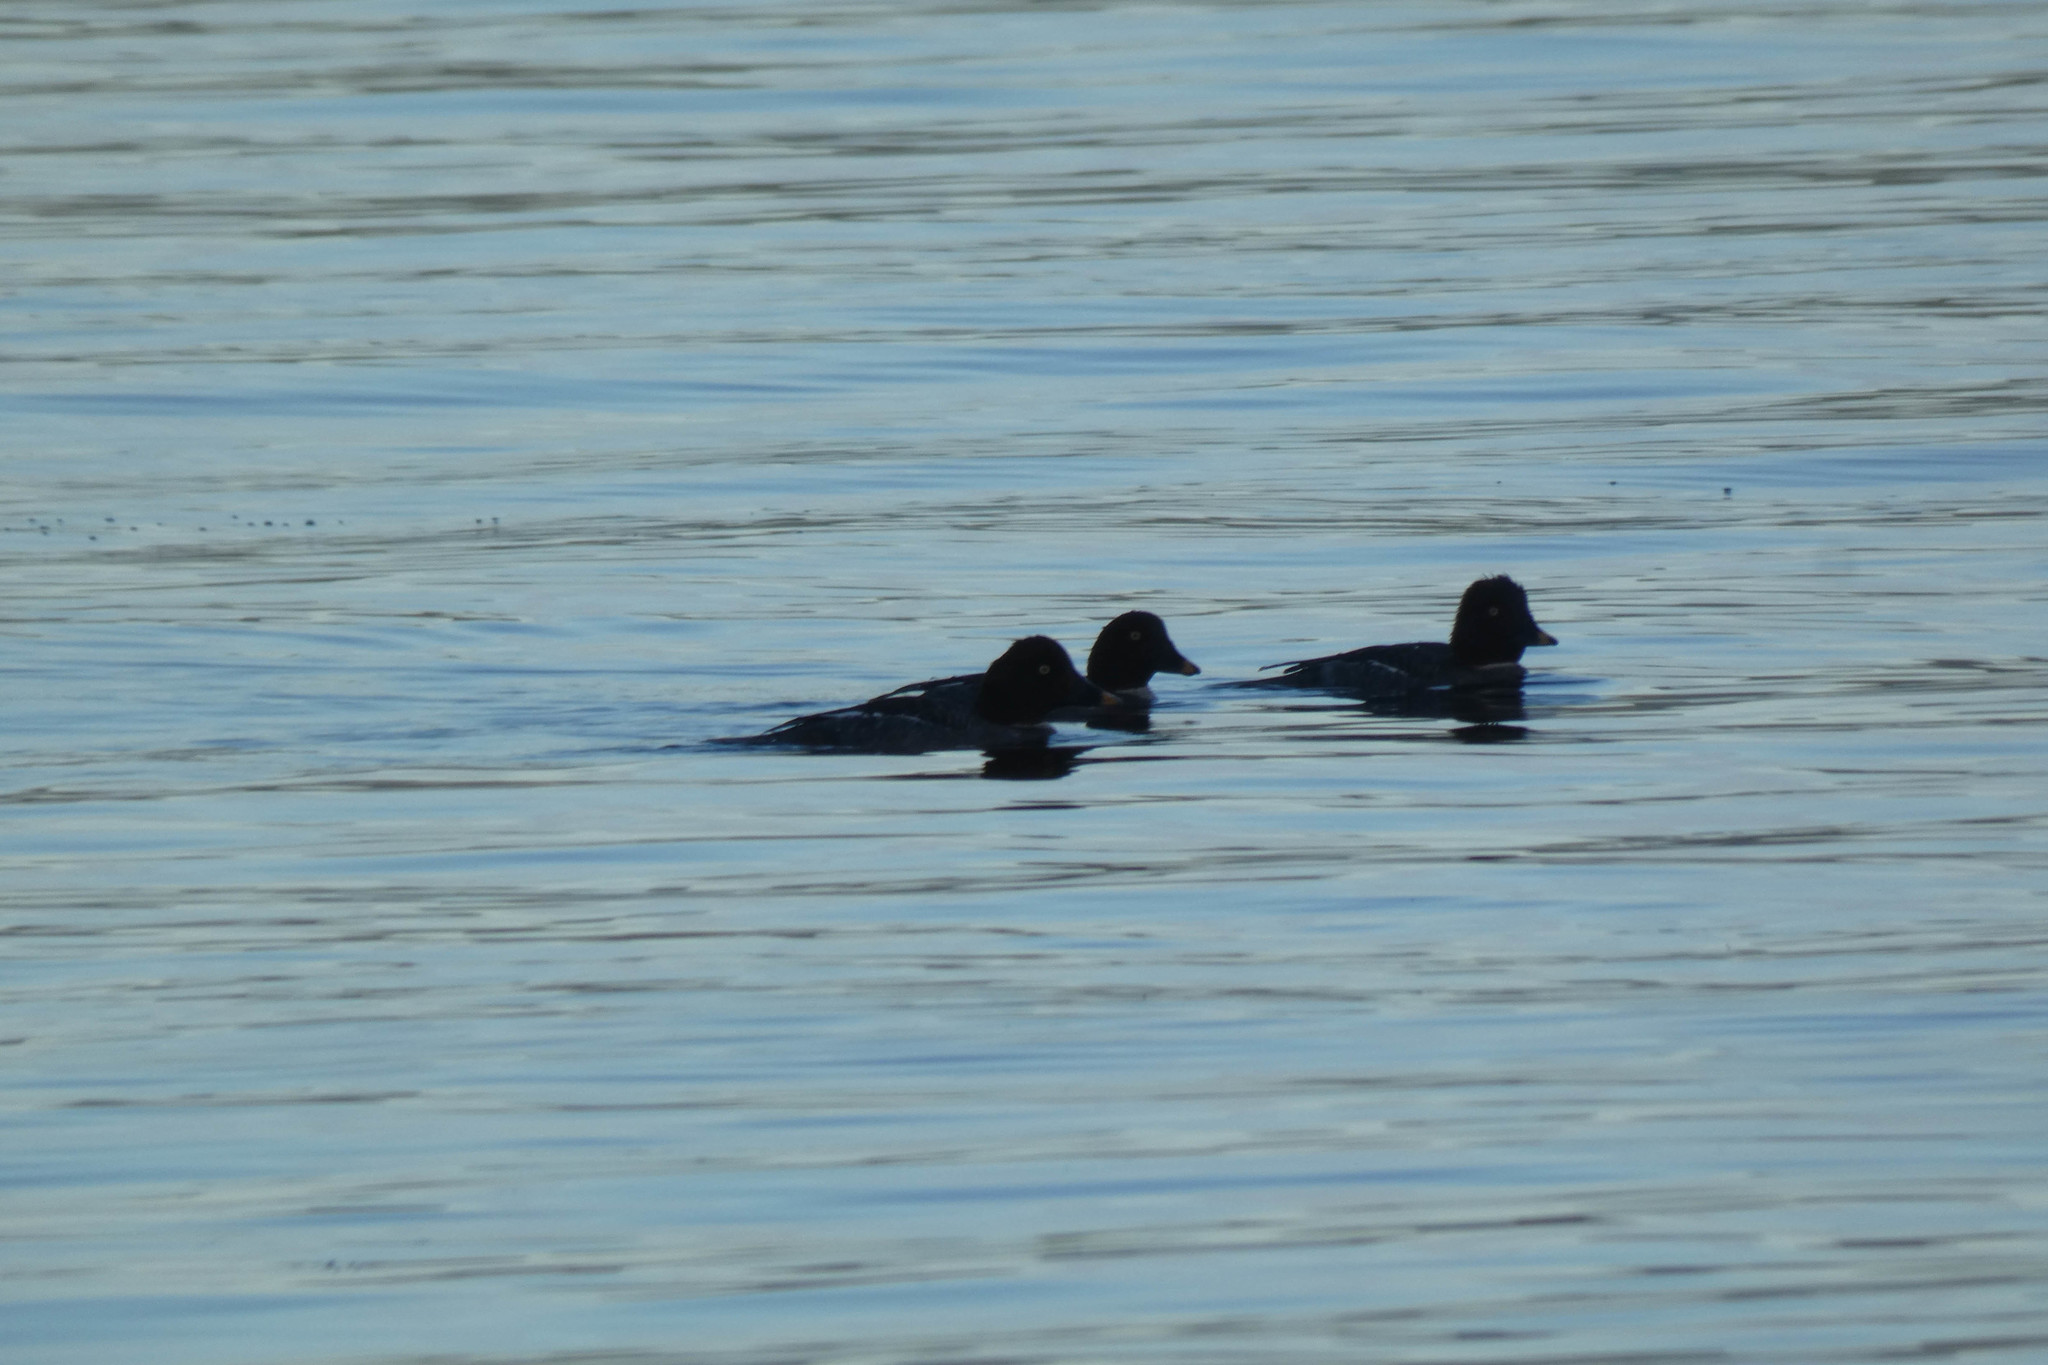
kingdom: Animalia
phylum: Chordata
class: Aves
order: Anseriformes
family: Anatidae
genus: Bucephala
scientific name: Bucephala clangula
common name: Common goldeneye
